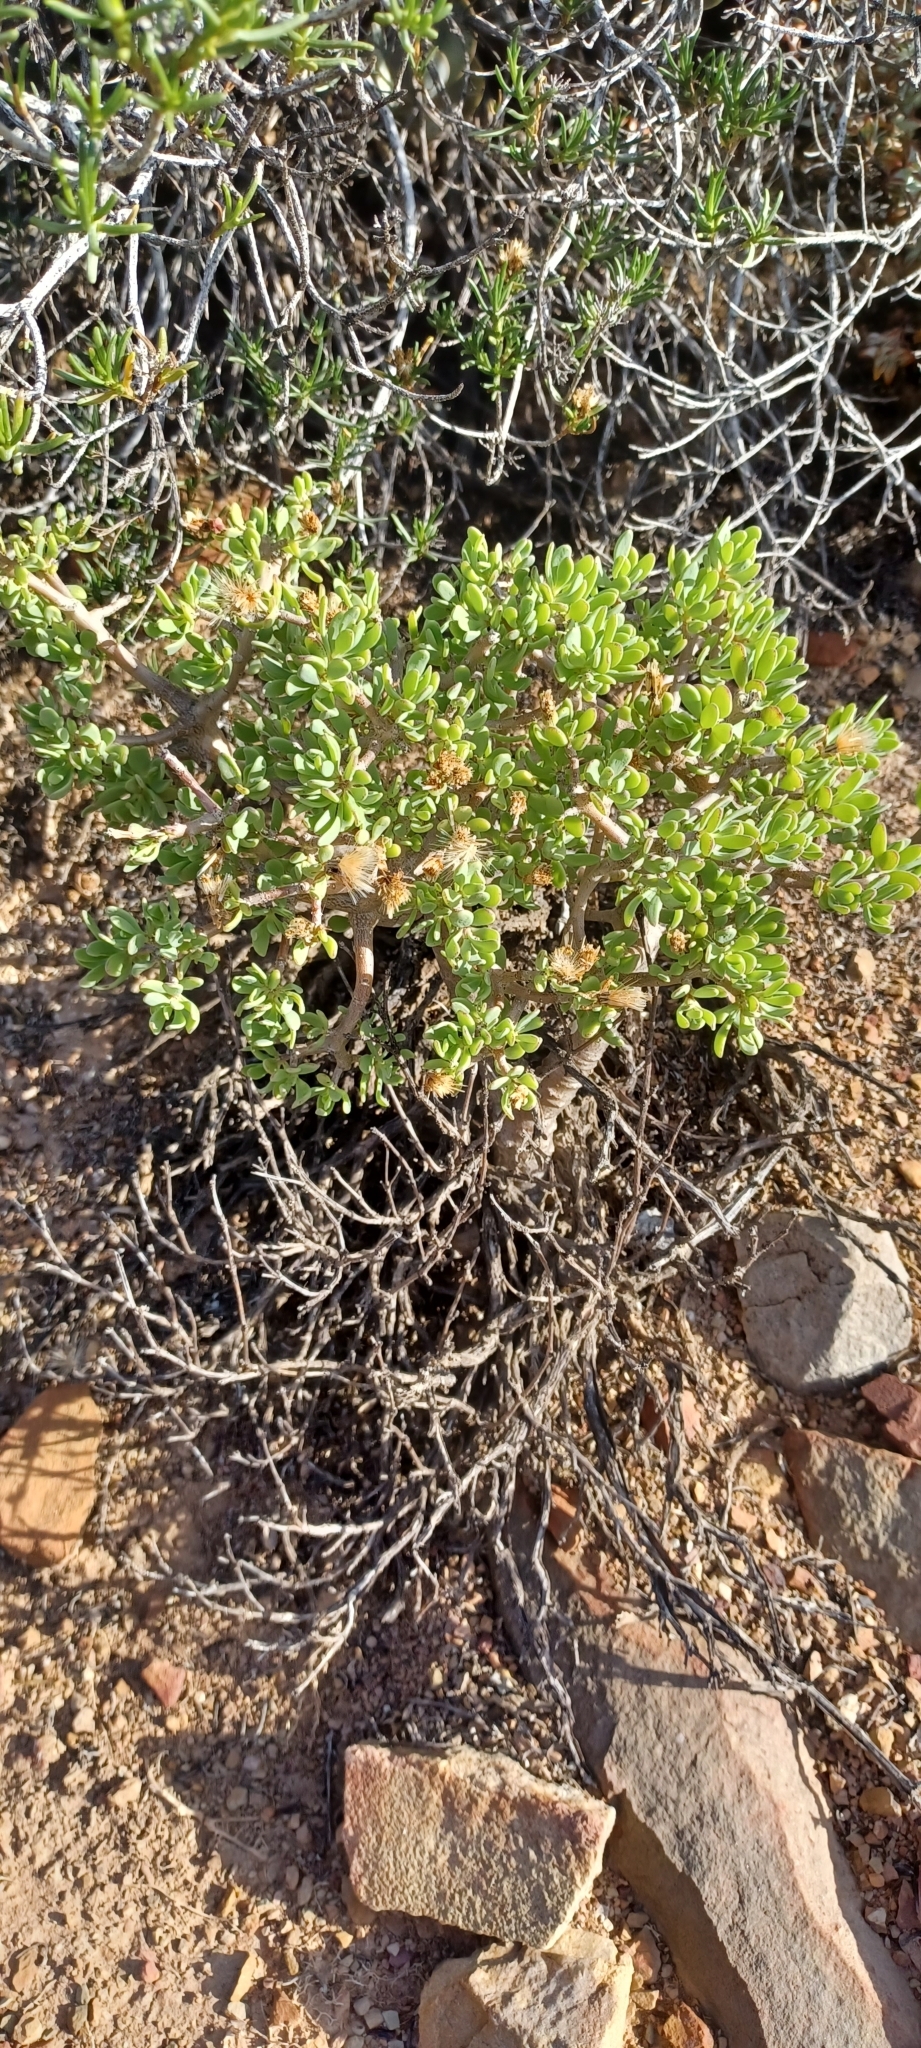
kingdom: Plantae
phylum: Tracheophyta
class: Magnoliopsida
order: Asterales
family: Asteraceae
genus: Othonna
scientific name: Othonna arbuscula
